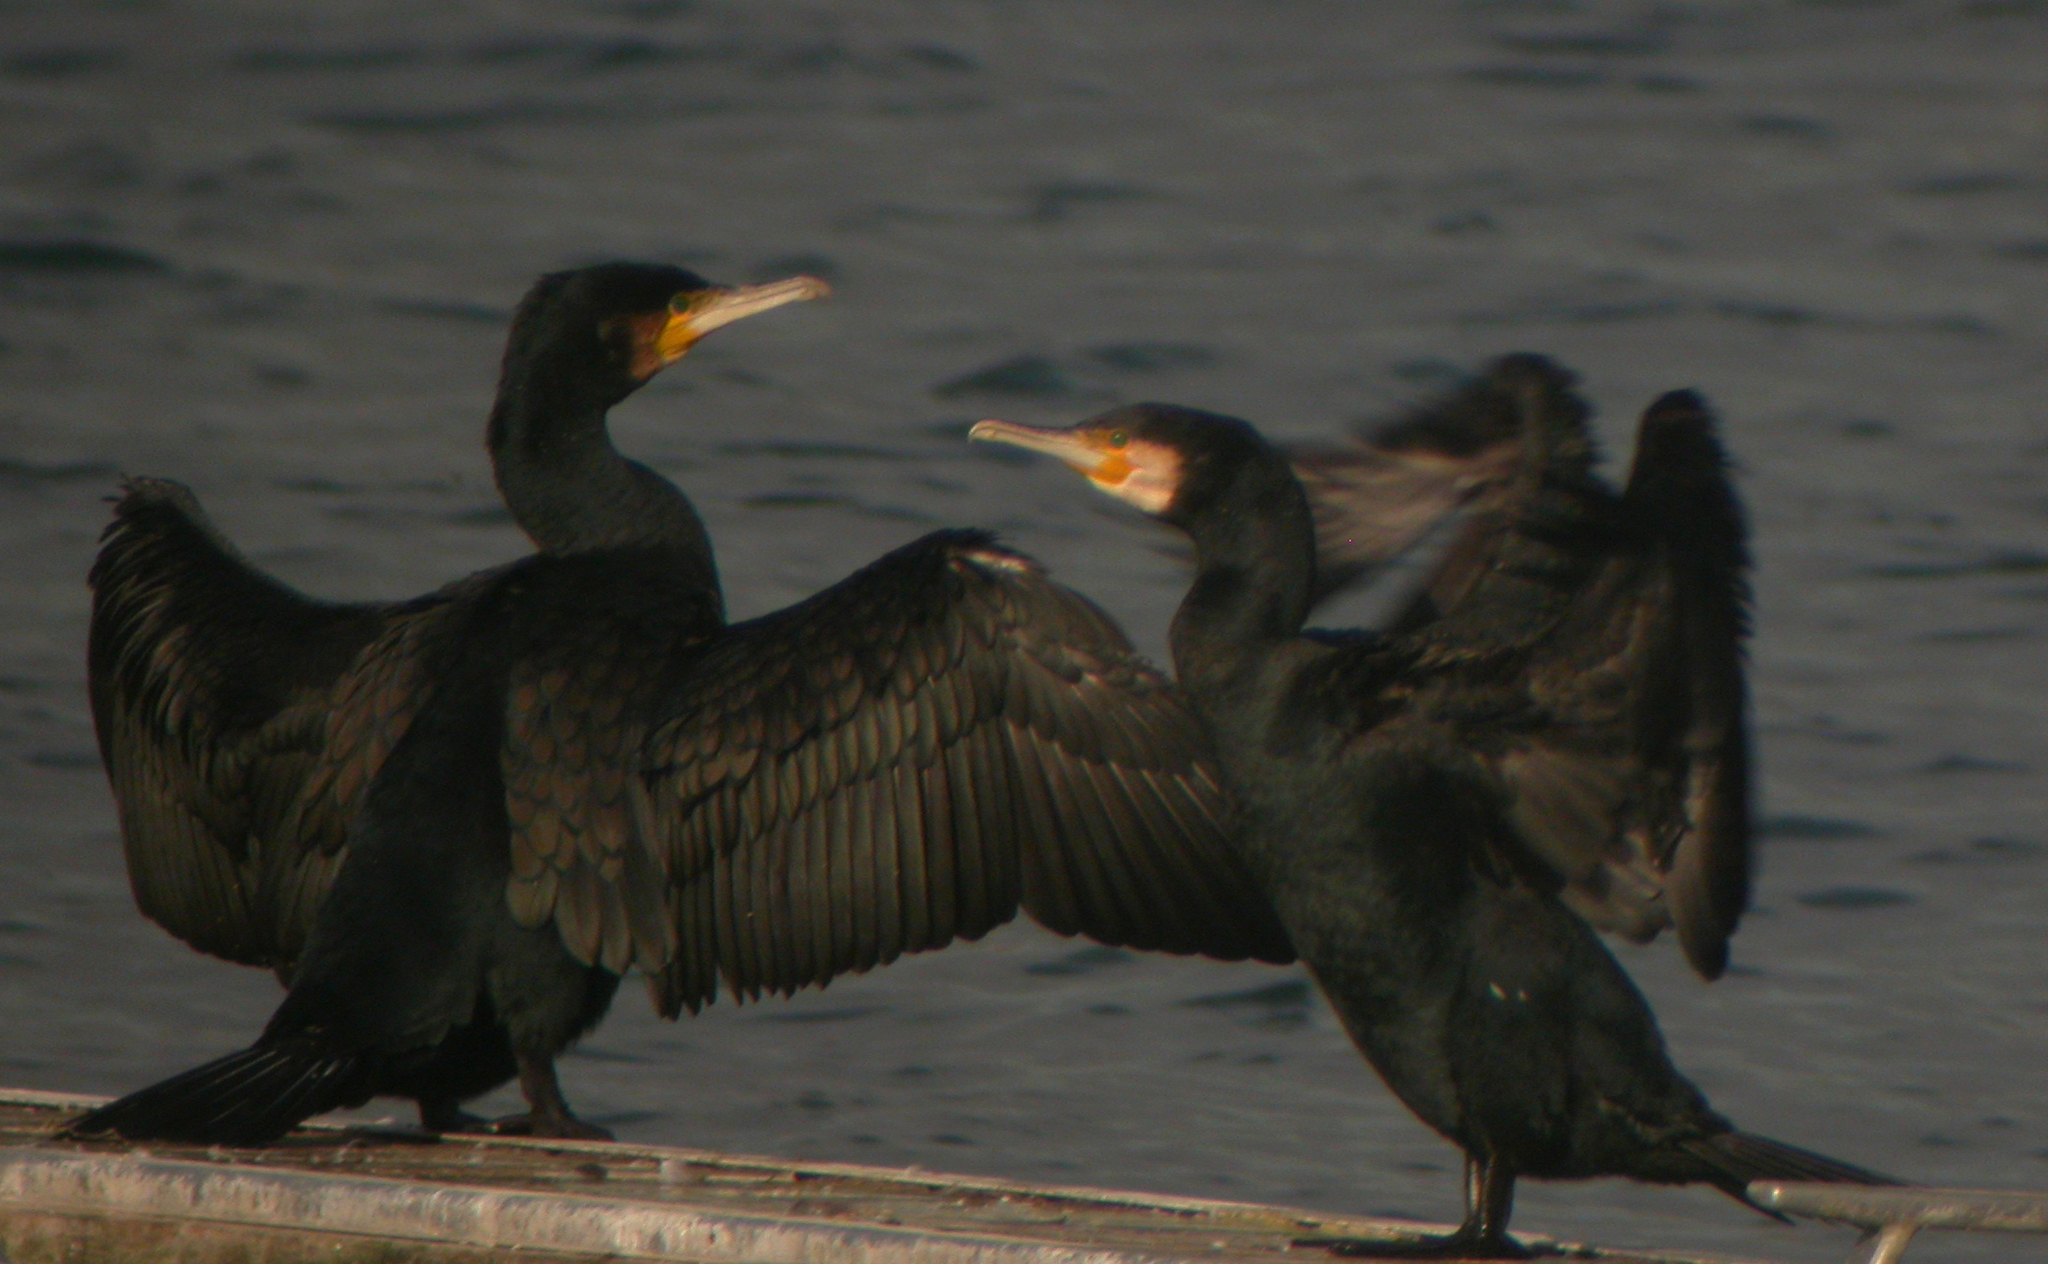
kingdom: Animalia
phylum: Chordata
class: Aves
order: Suliformes
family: Phalacrocoracidae
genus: Phalacrocorax
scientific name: Phalacrocorax carbo
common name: Great cormorant
